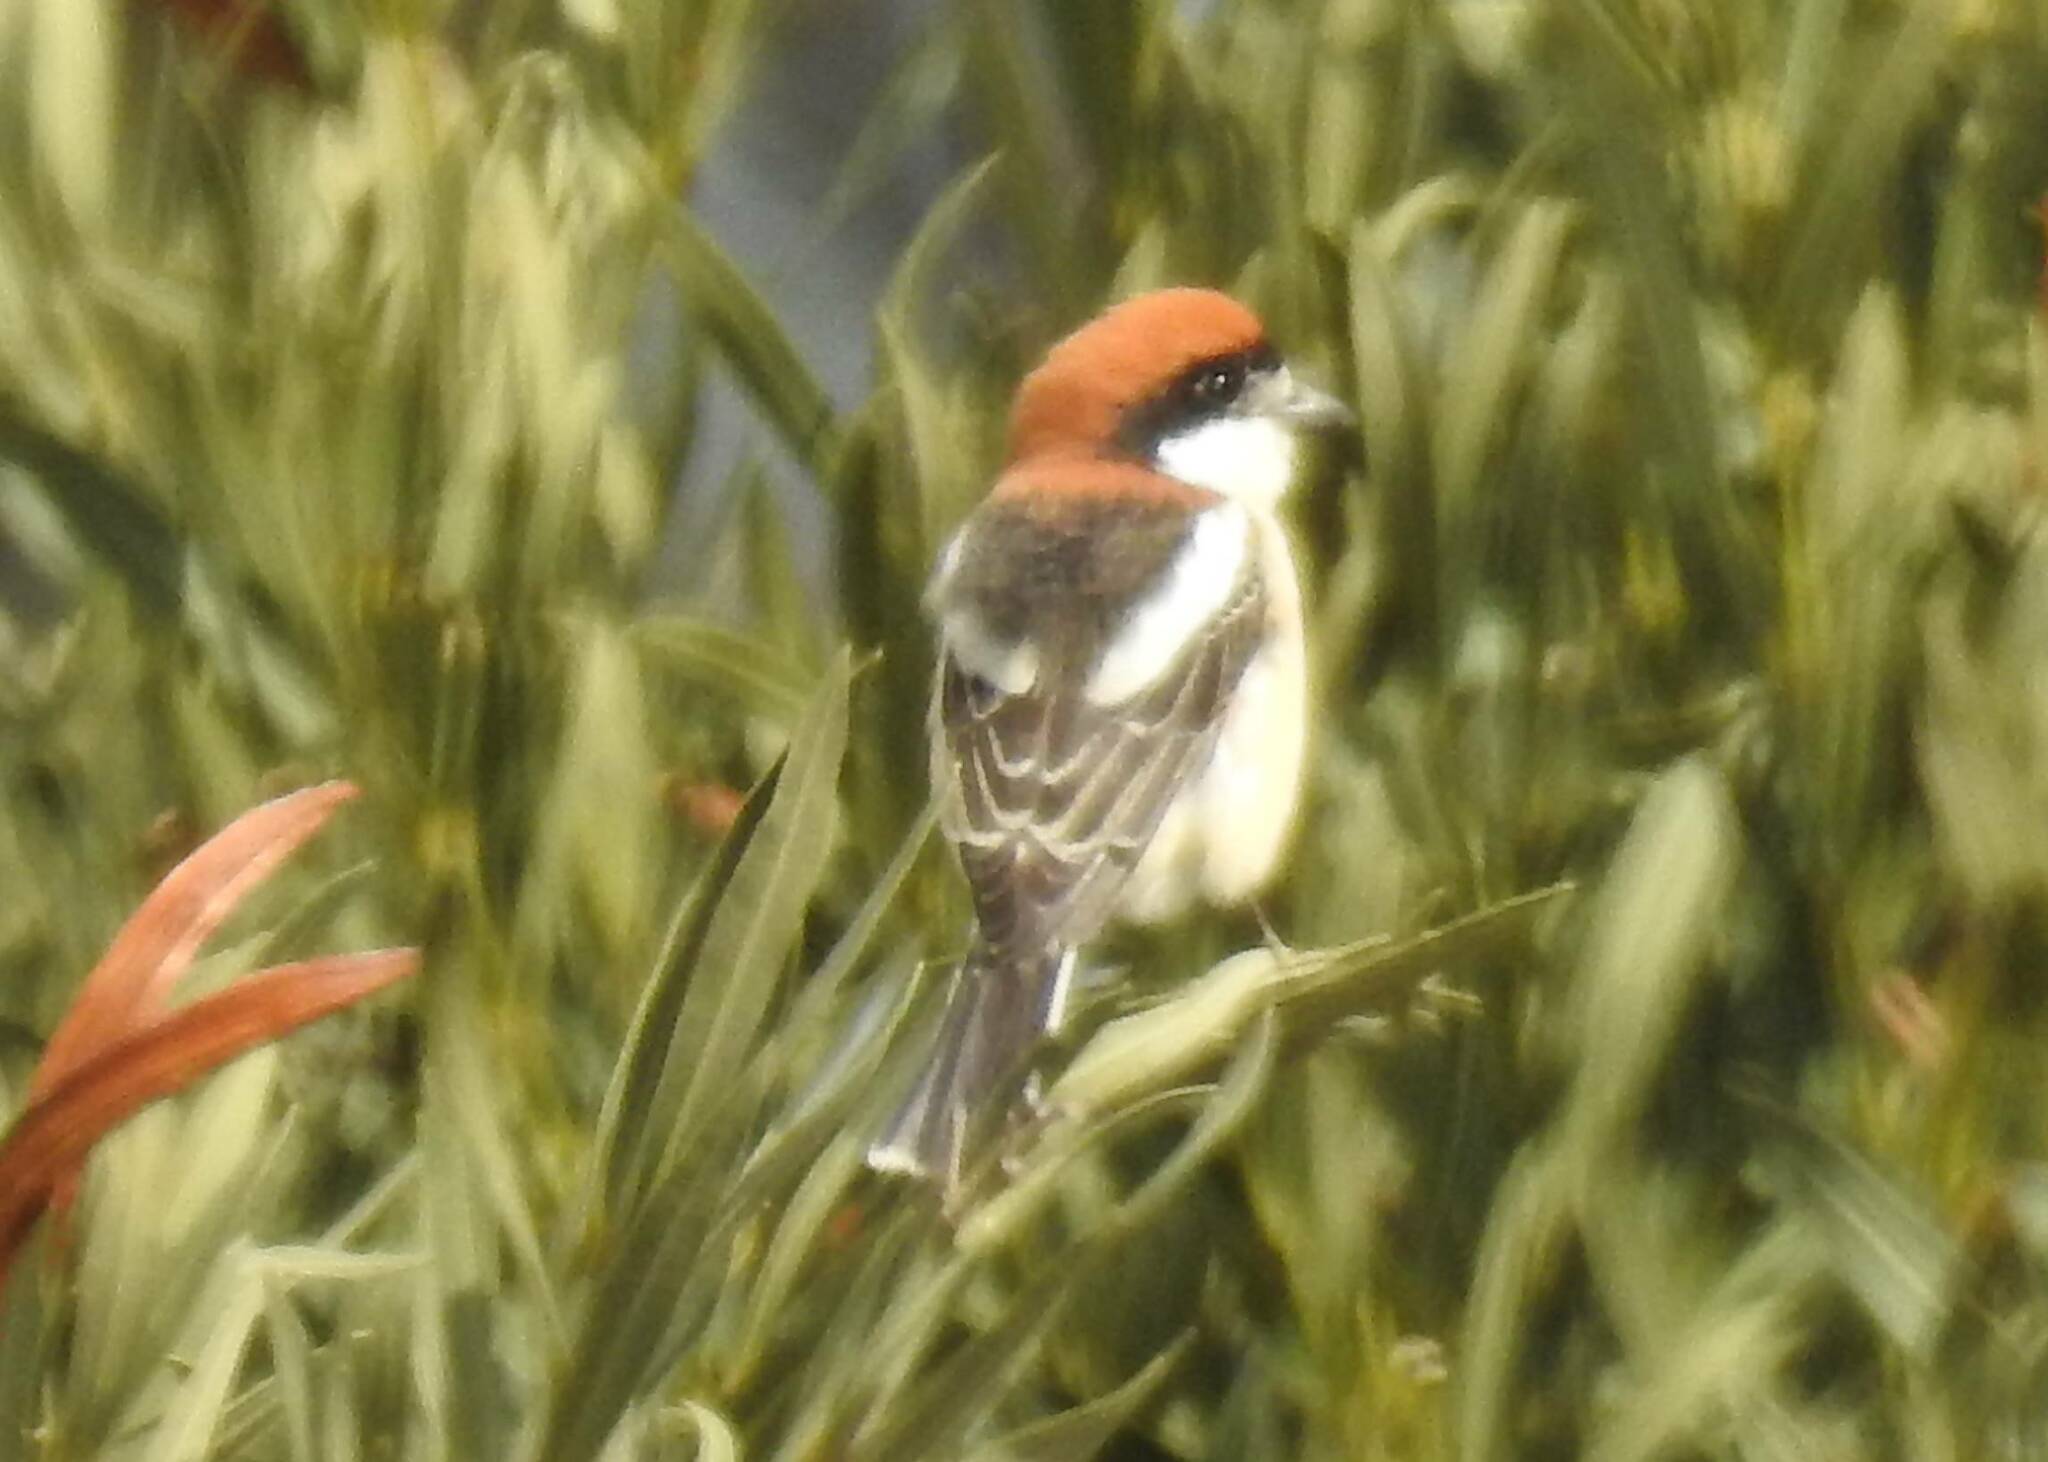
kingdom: Animalia
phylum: Chordata
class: Aves
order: Passeriformes
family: Laniidae
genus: Lanius
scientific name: Lanius senator
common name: Woodchat shrike
